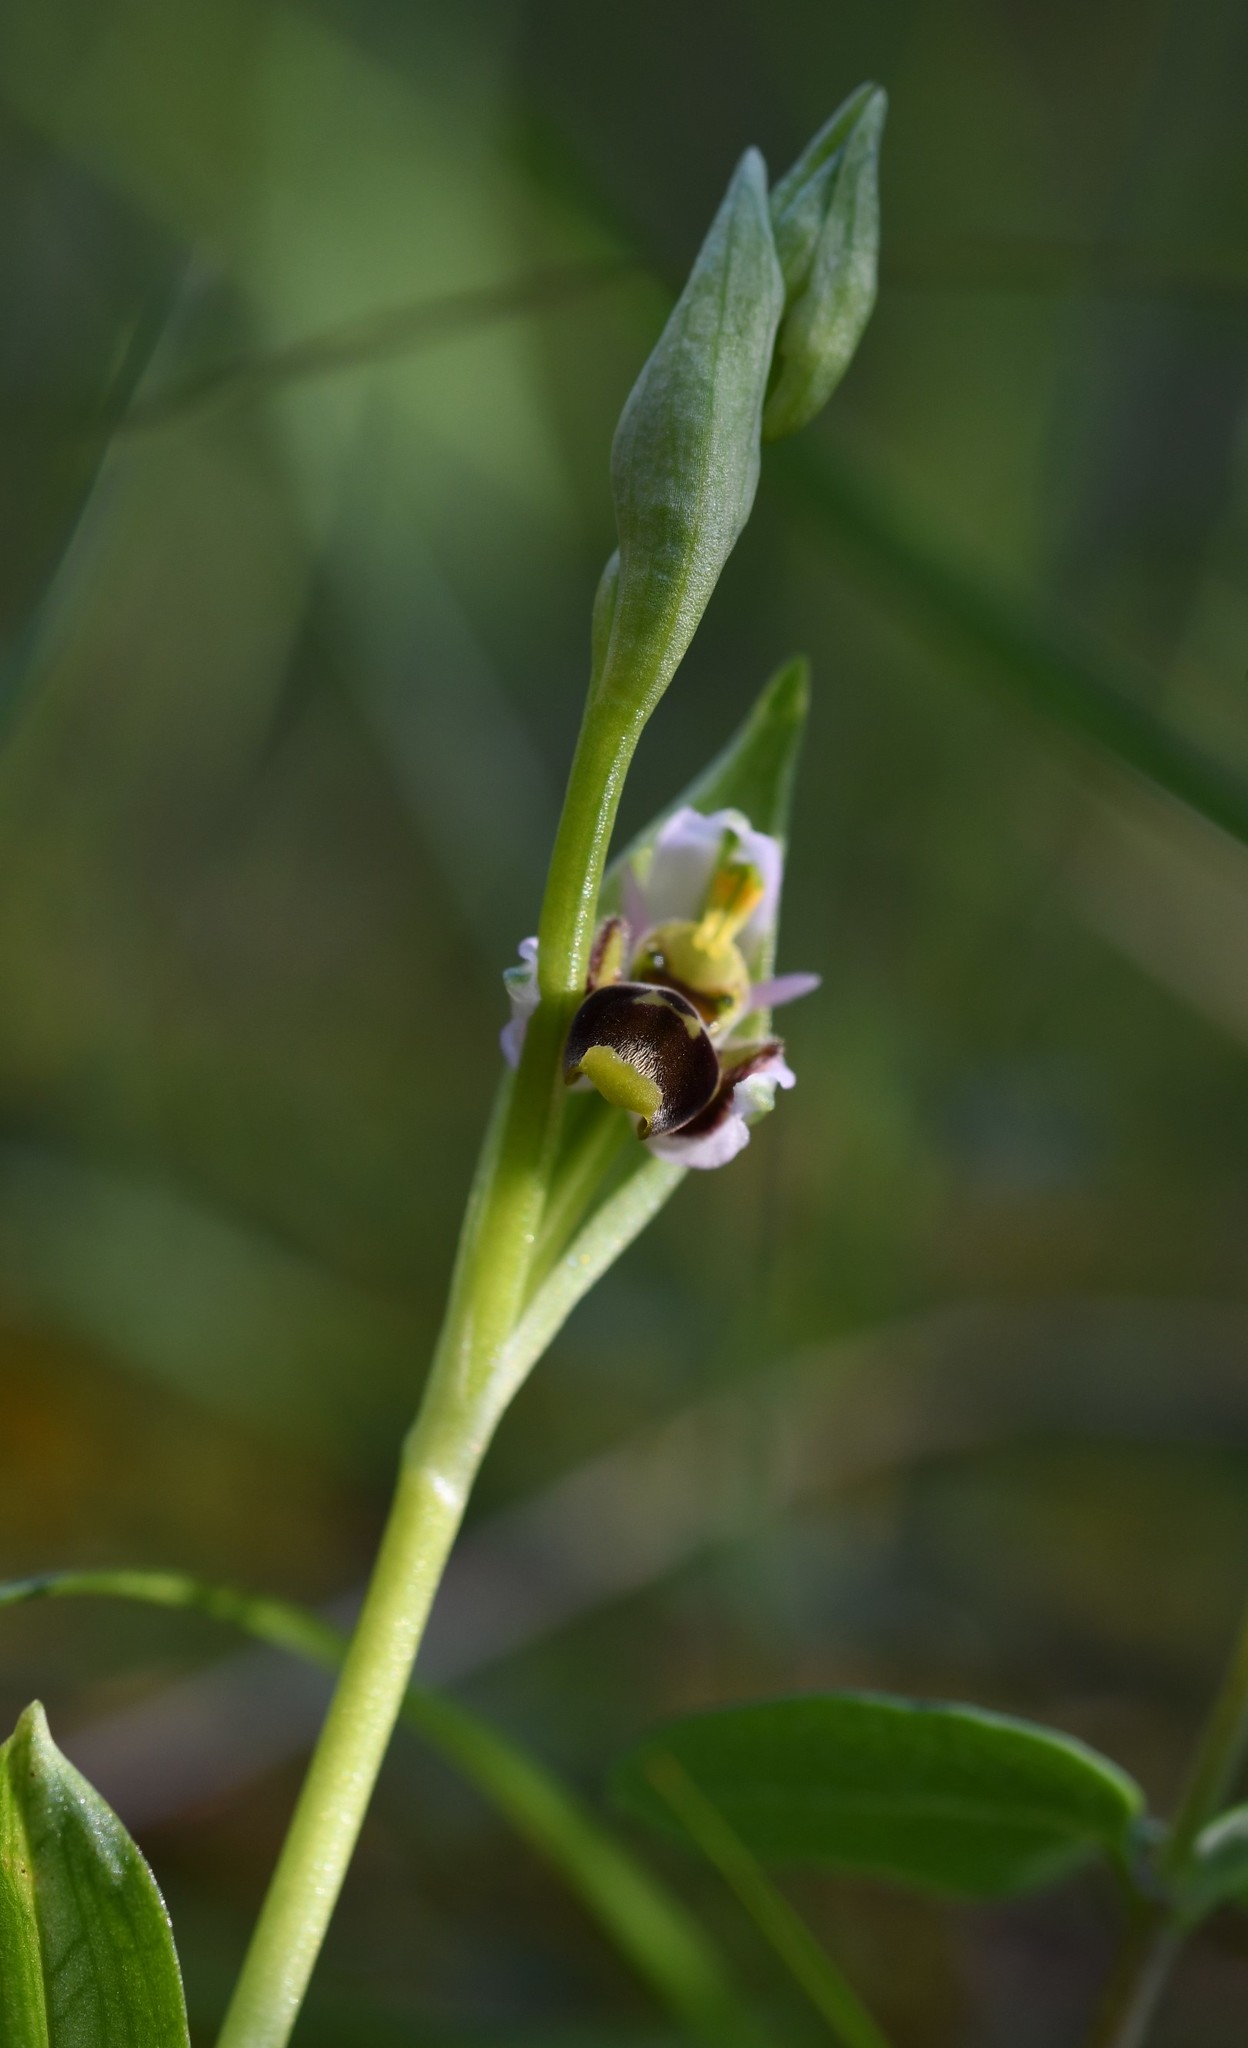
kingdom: Plantae
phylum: Tracheophyta
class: Liliopsida
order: Asparagales
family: Orchidaceae
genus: Ophrys
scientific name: Ophrys scolopax
